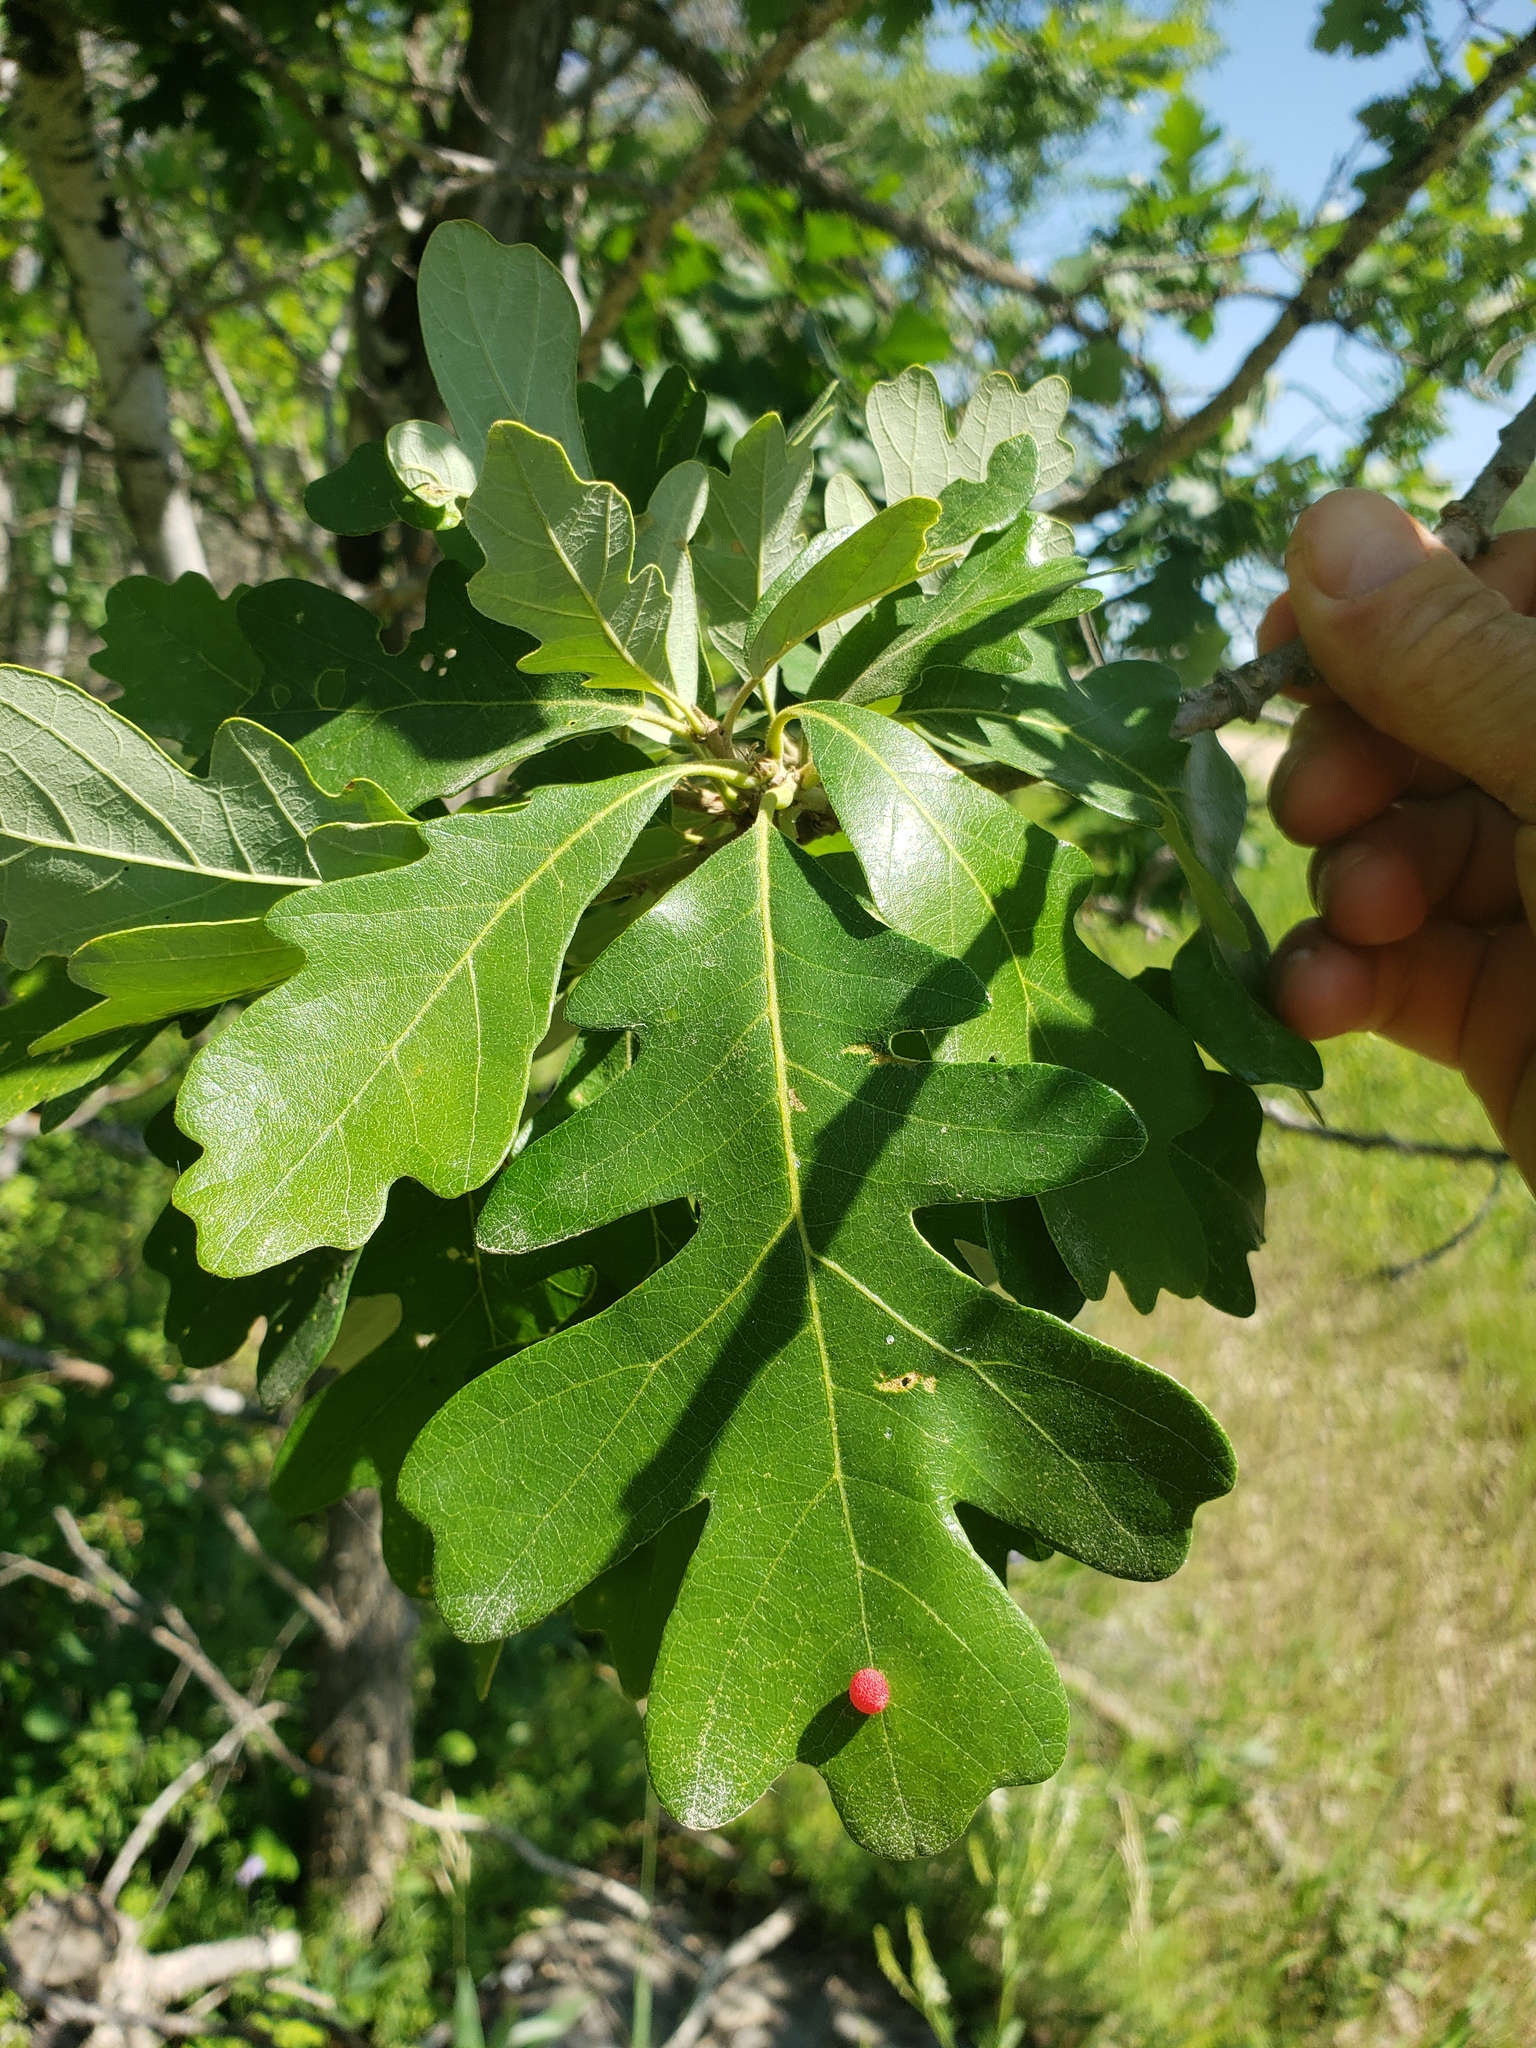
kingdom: Plantae
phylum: Tracheophyta
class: Magnoliopsida
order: Fagales
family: Fagaceae
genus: Quercus
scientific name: Quercus macrocarpa
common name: Bur oak
